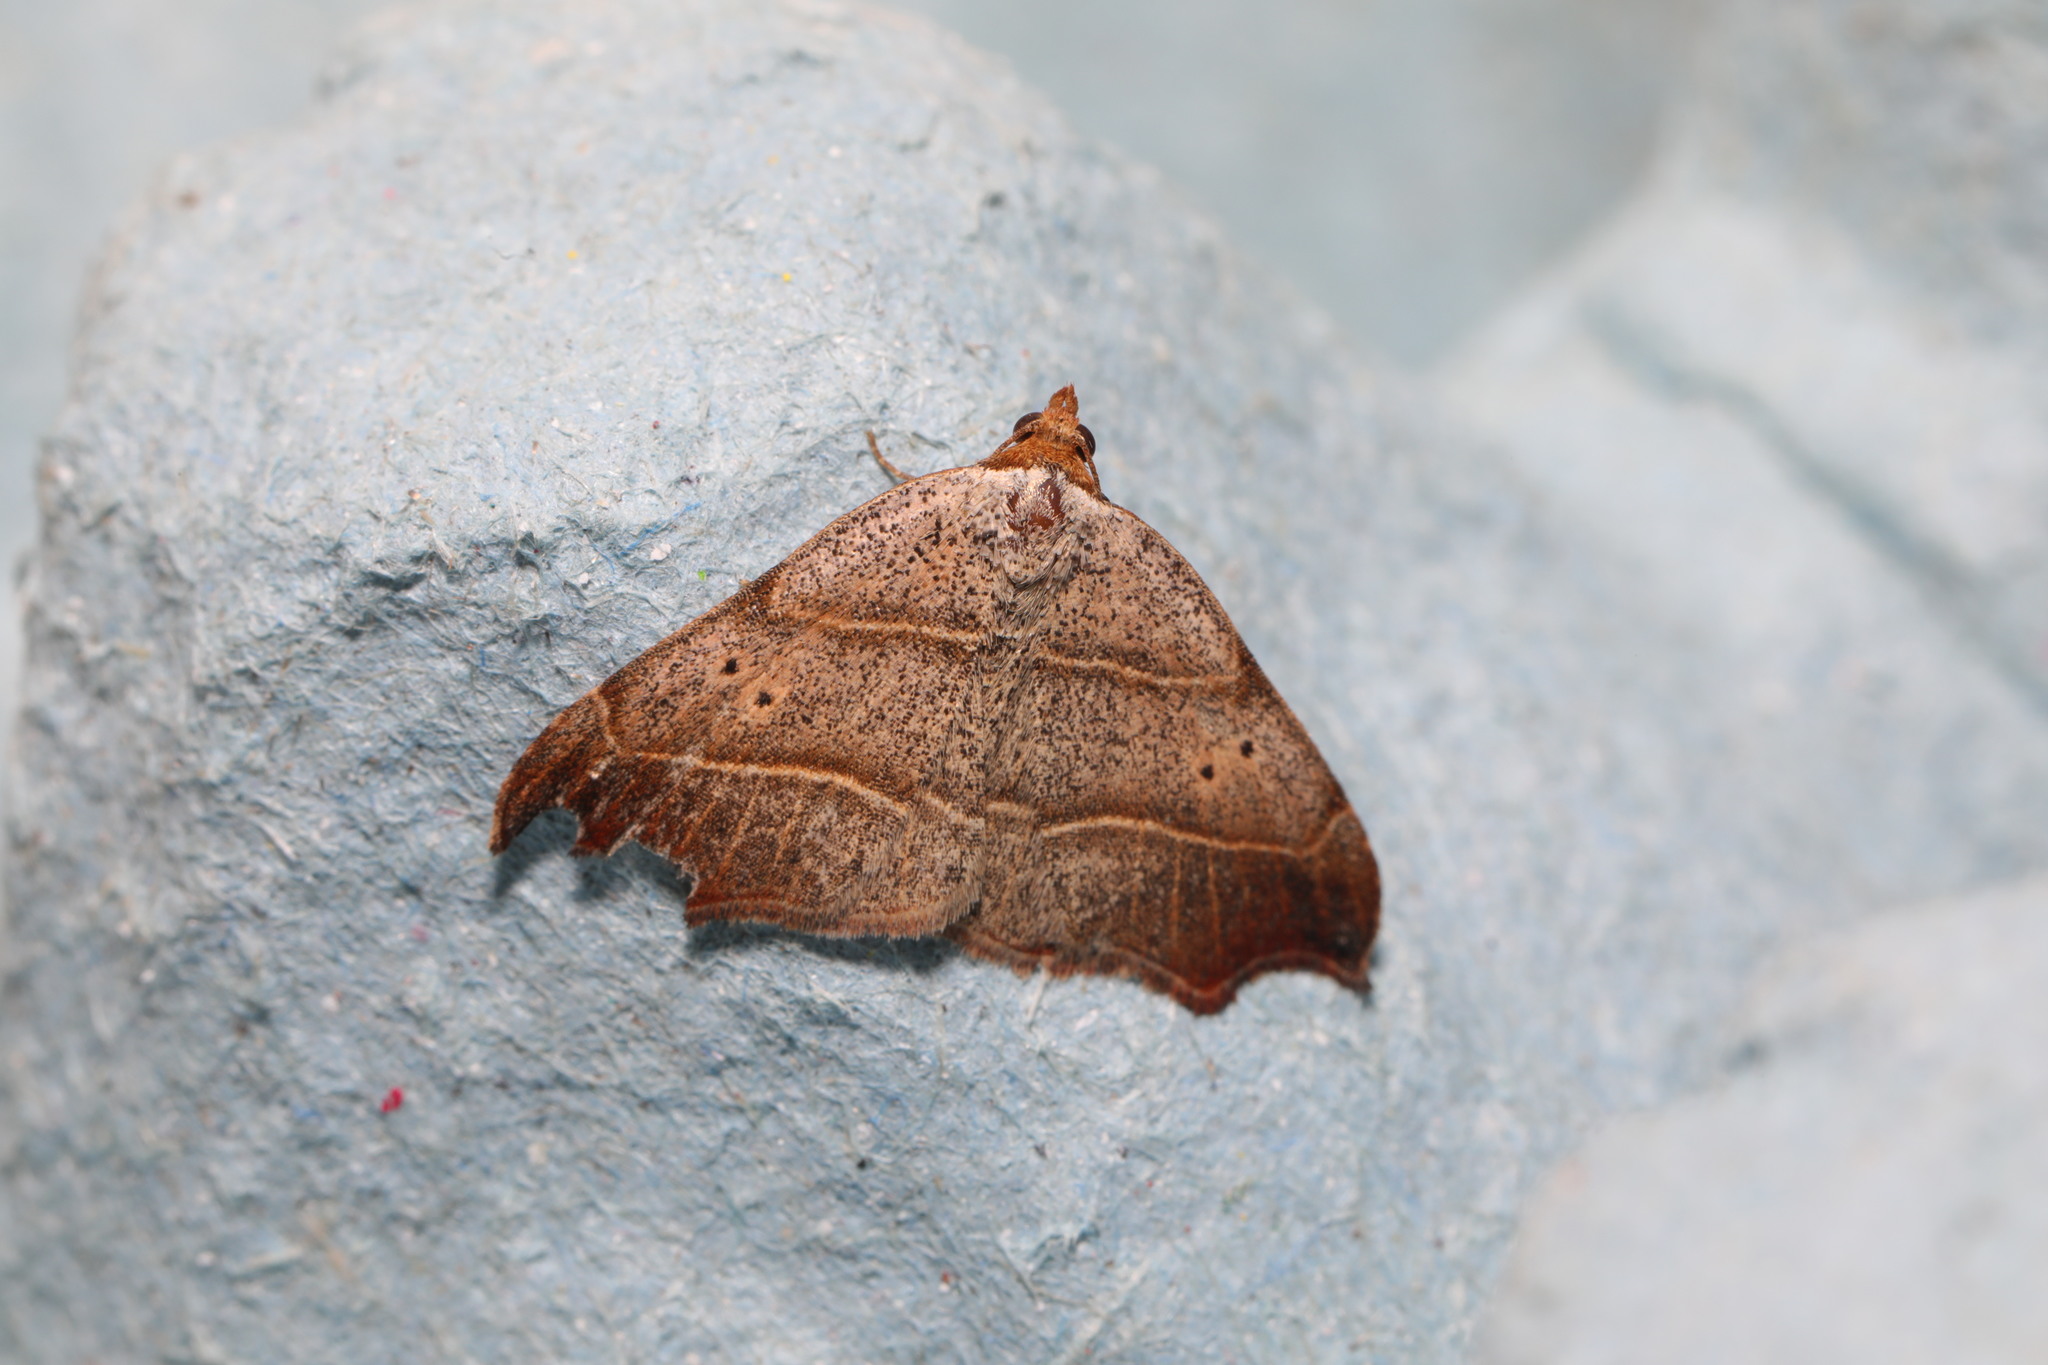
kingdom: Animalia
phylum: Arthropoda
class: Insecta
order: Lepidoptera
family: Erebidae
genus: Laspeyria
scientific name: Laspeyria flexula
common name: Beautiful hook-tip
